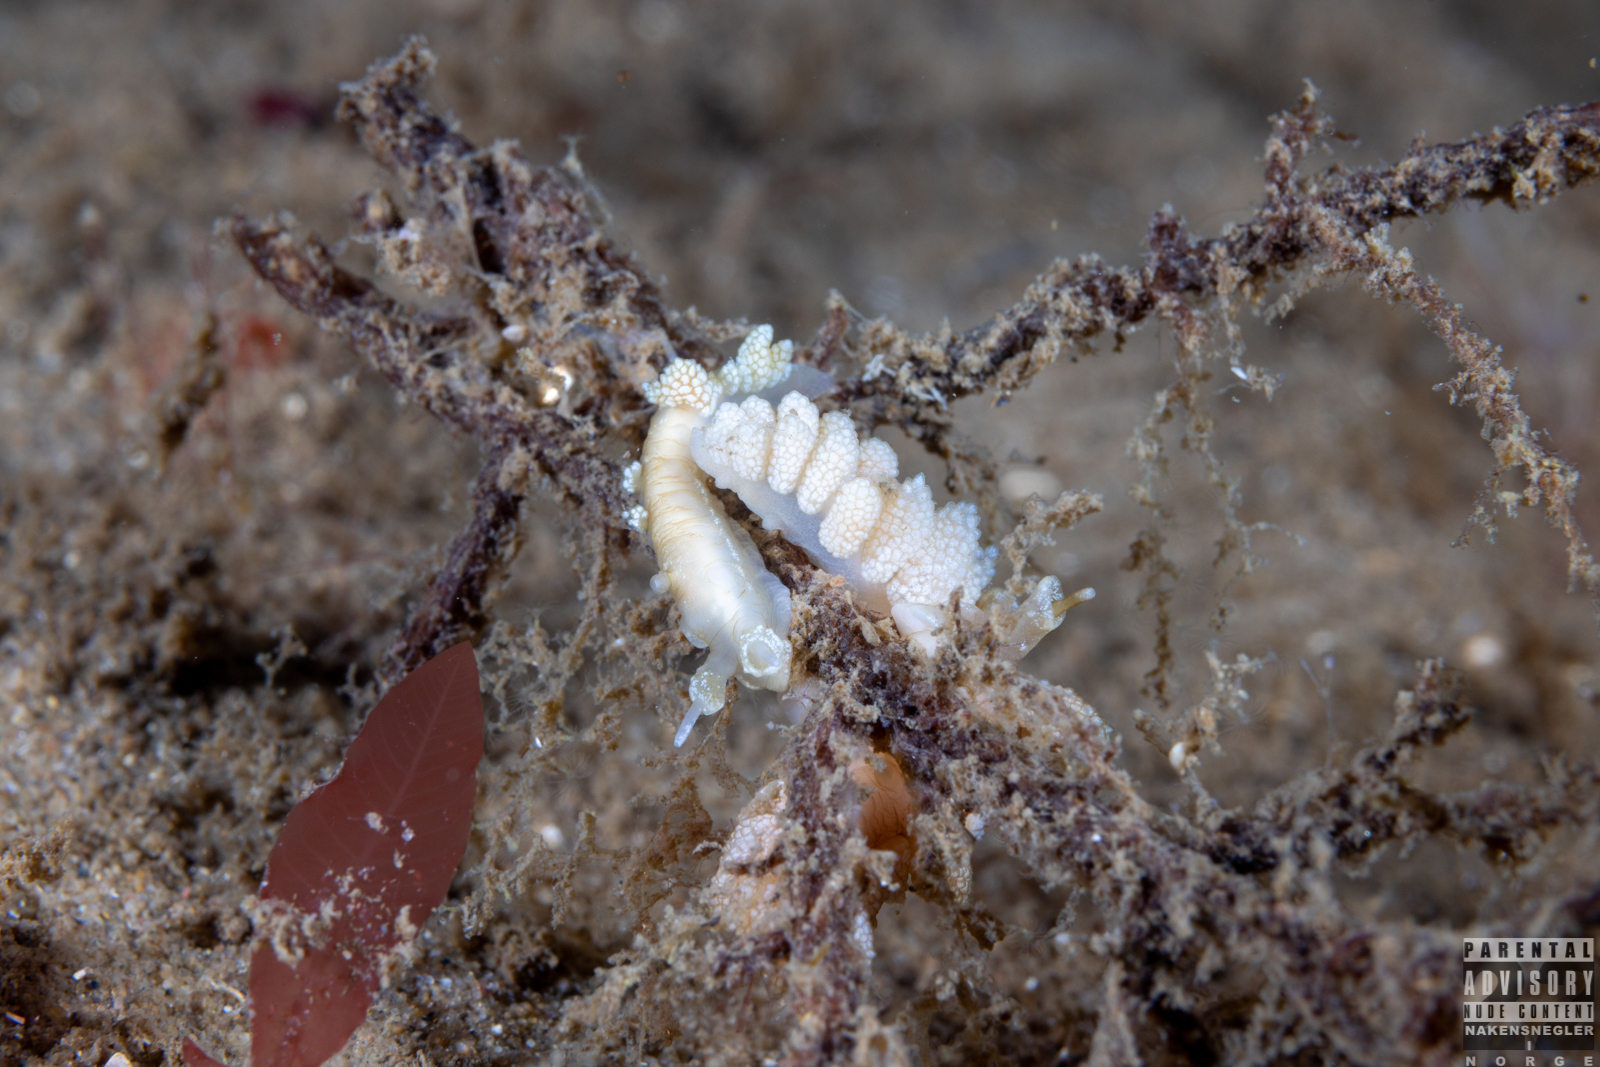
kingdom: Animalia
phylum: Mollusca
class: Gastropoda
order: Nudibranchia
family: Dotidae
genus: Doto
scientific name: Doto fragilis
